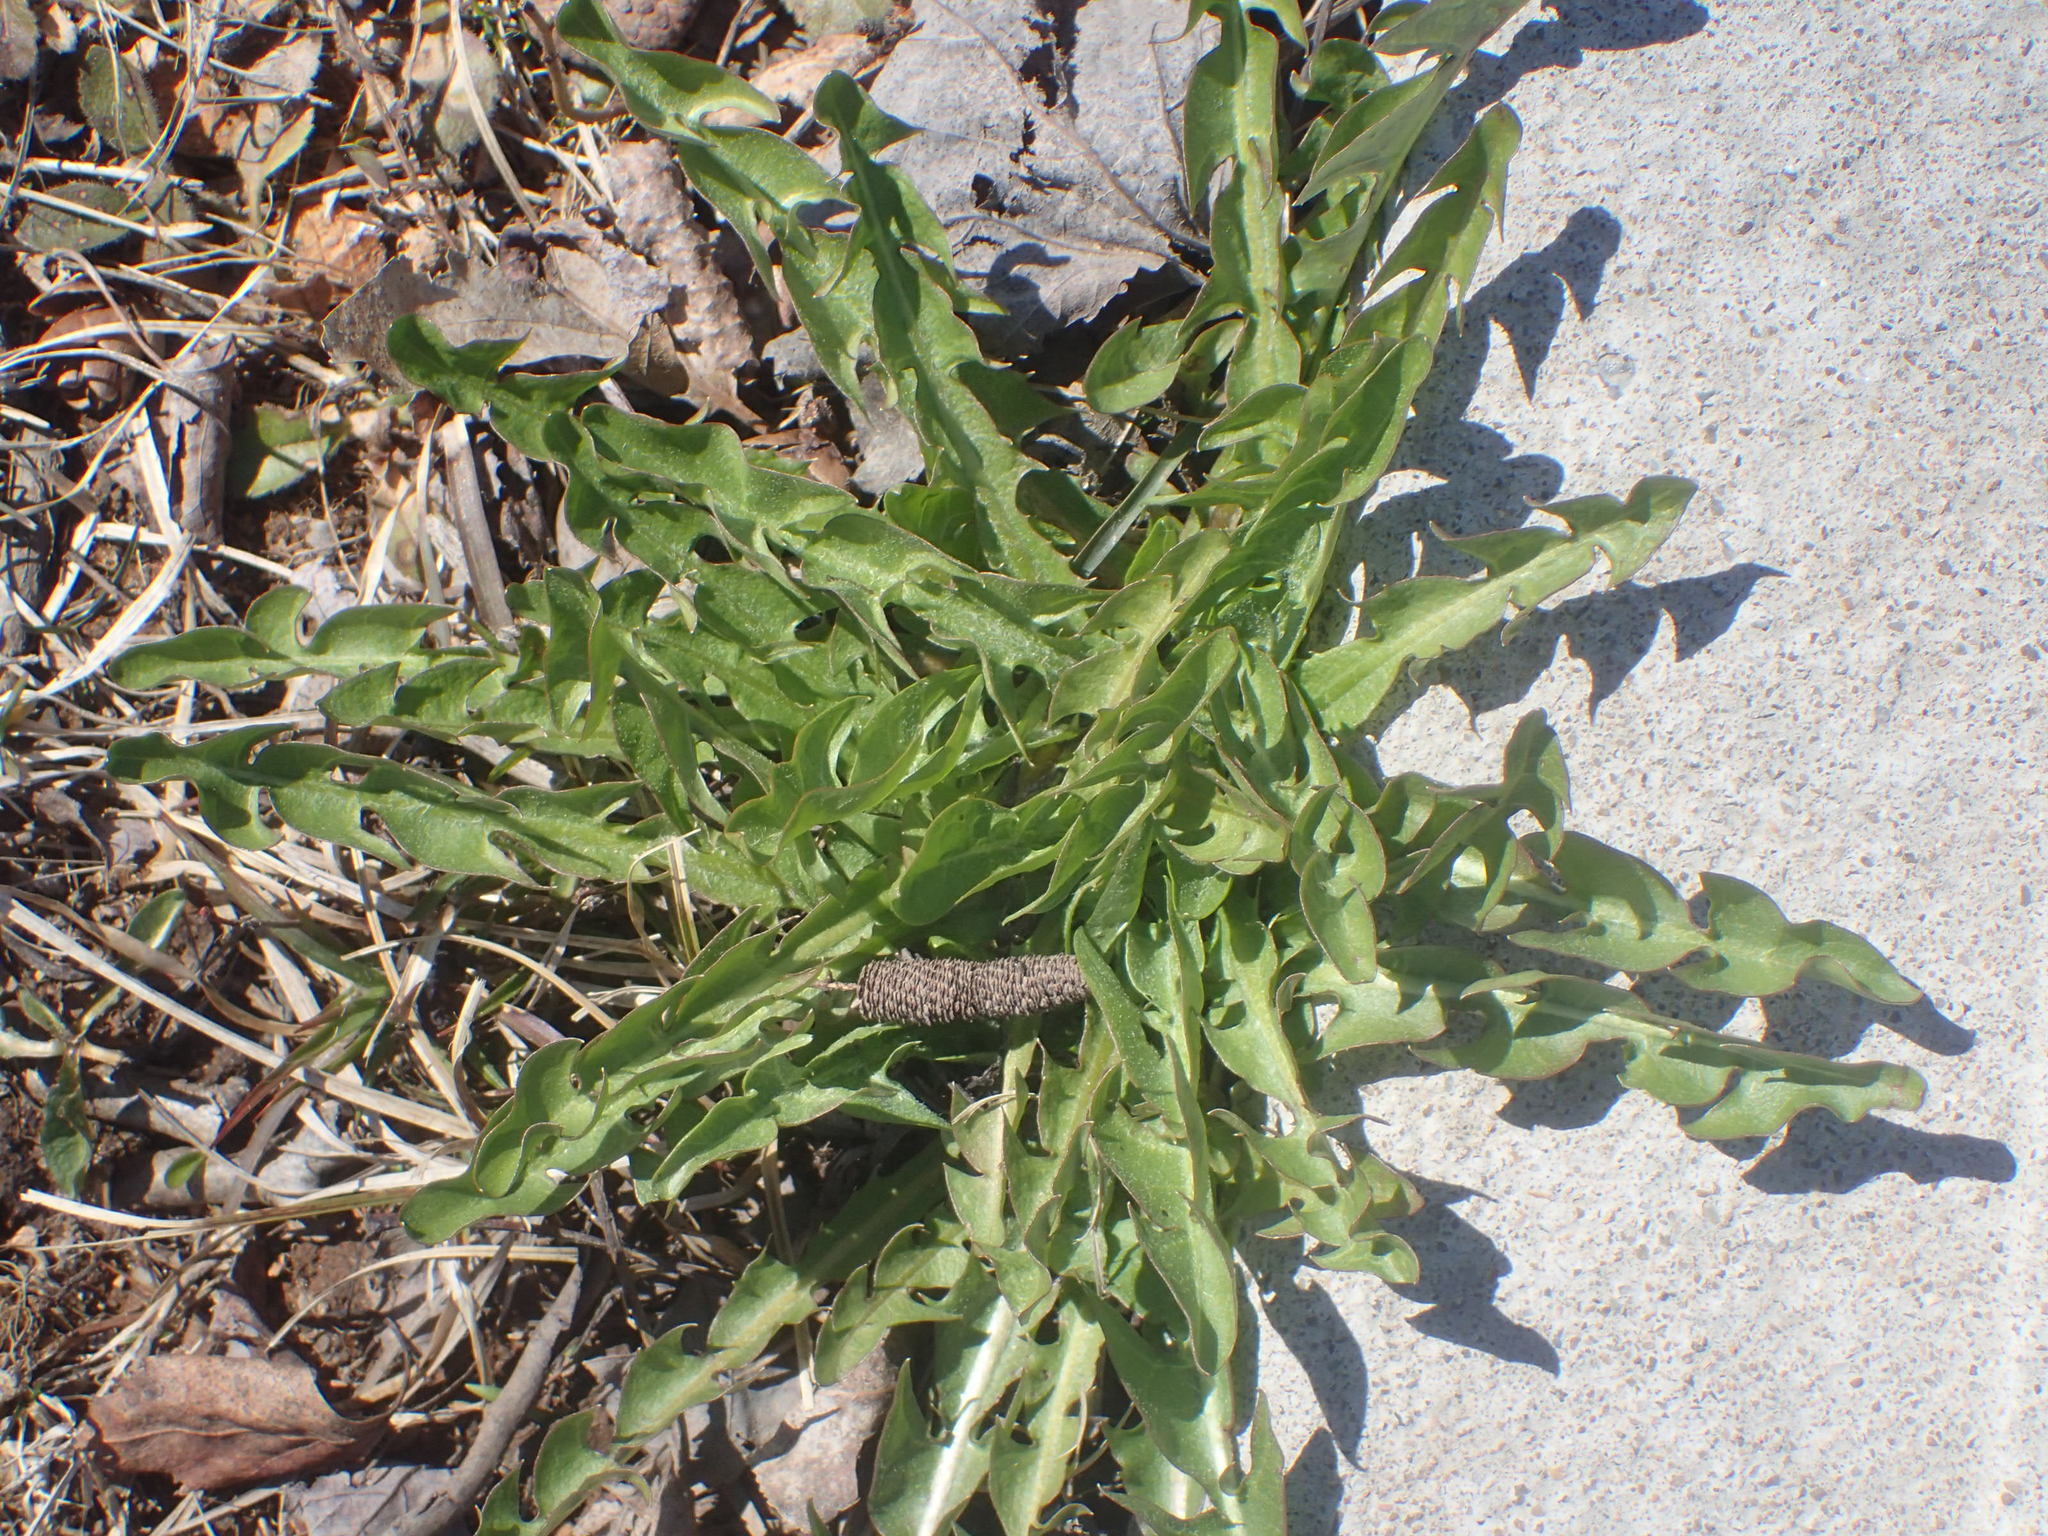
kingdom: Plantae
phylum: Tracheophyta
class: Magnoliopsida
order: Asterales
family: Asteraceae
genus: Taraxacum
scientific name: Taraxacum officinale
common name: Common dandelion
